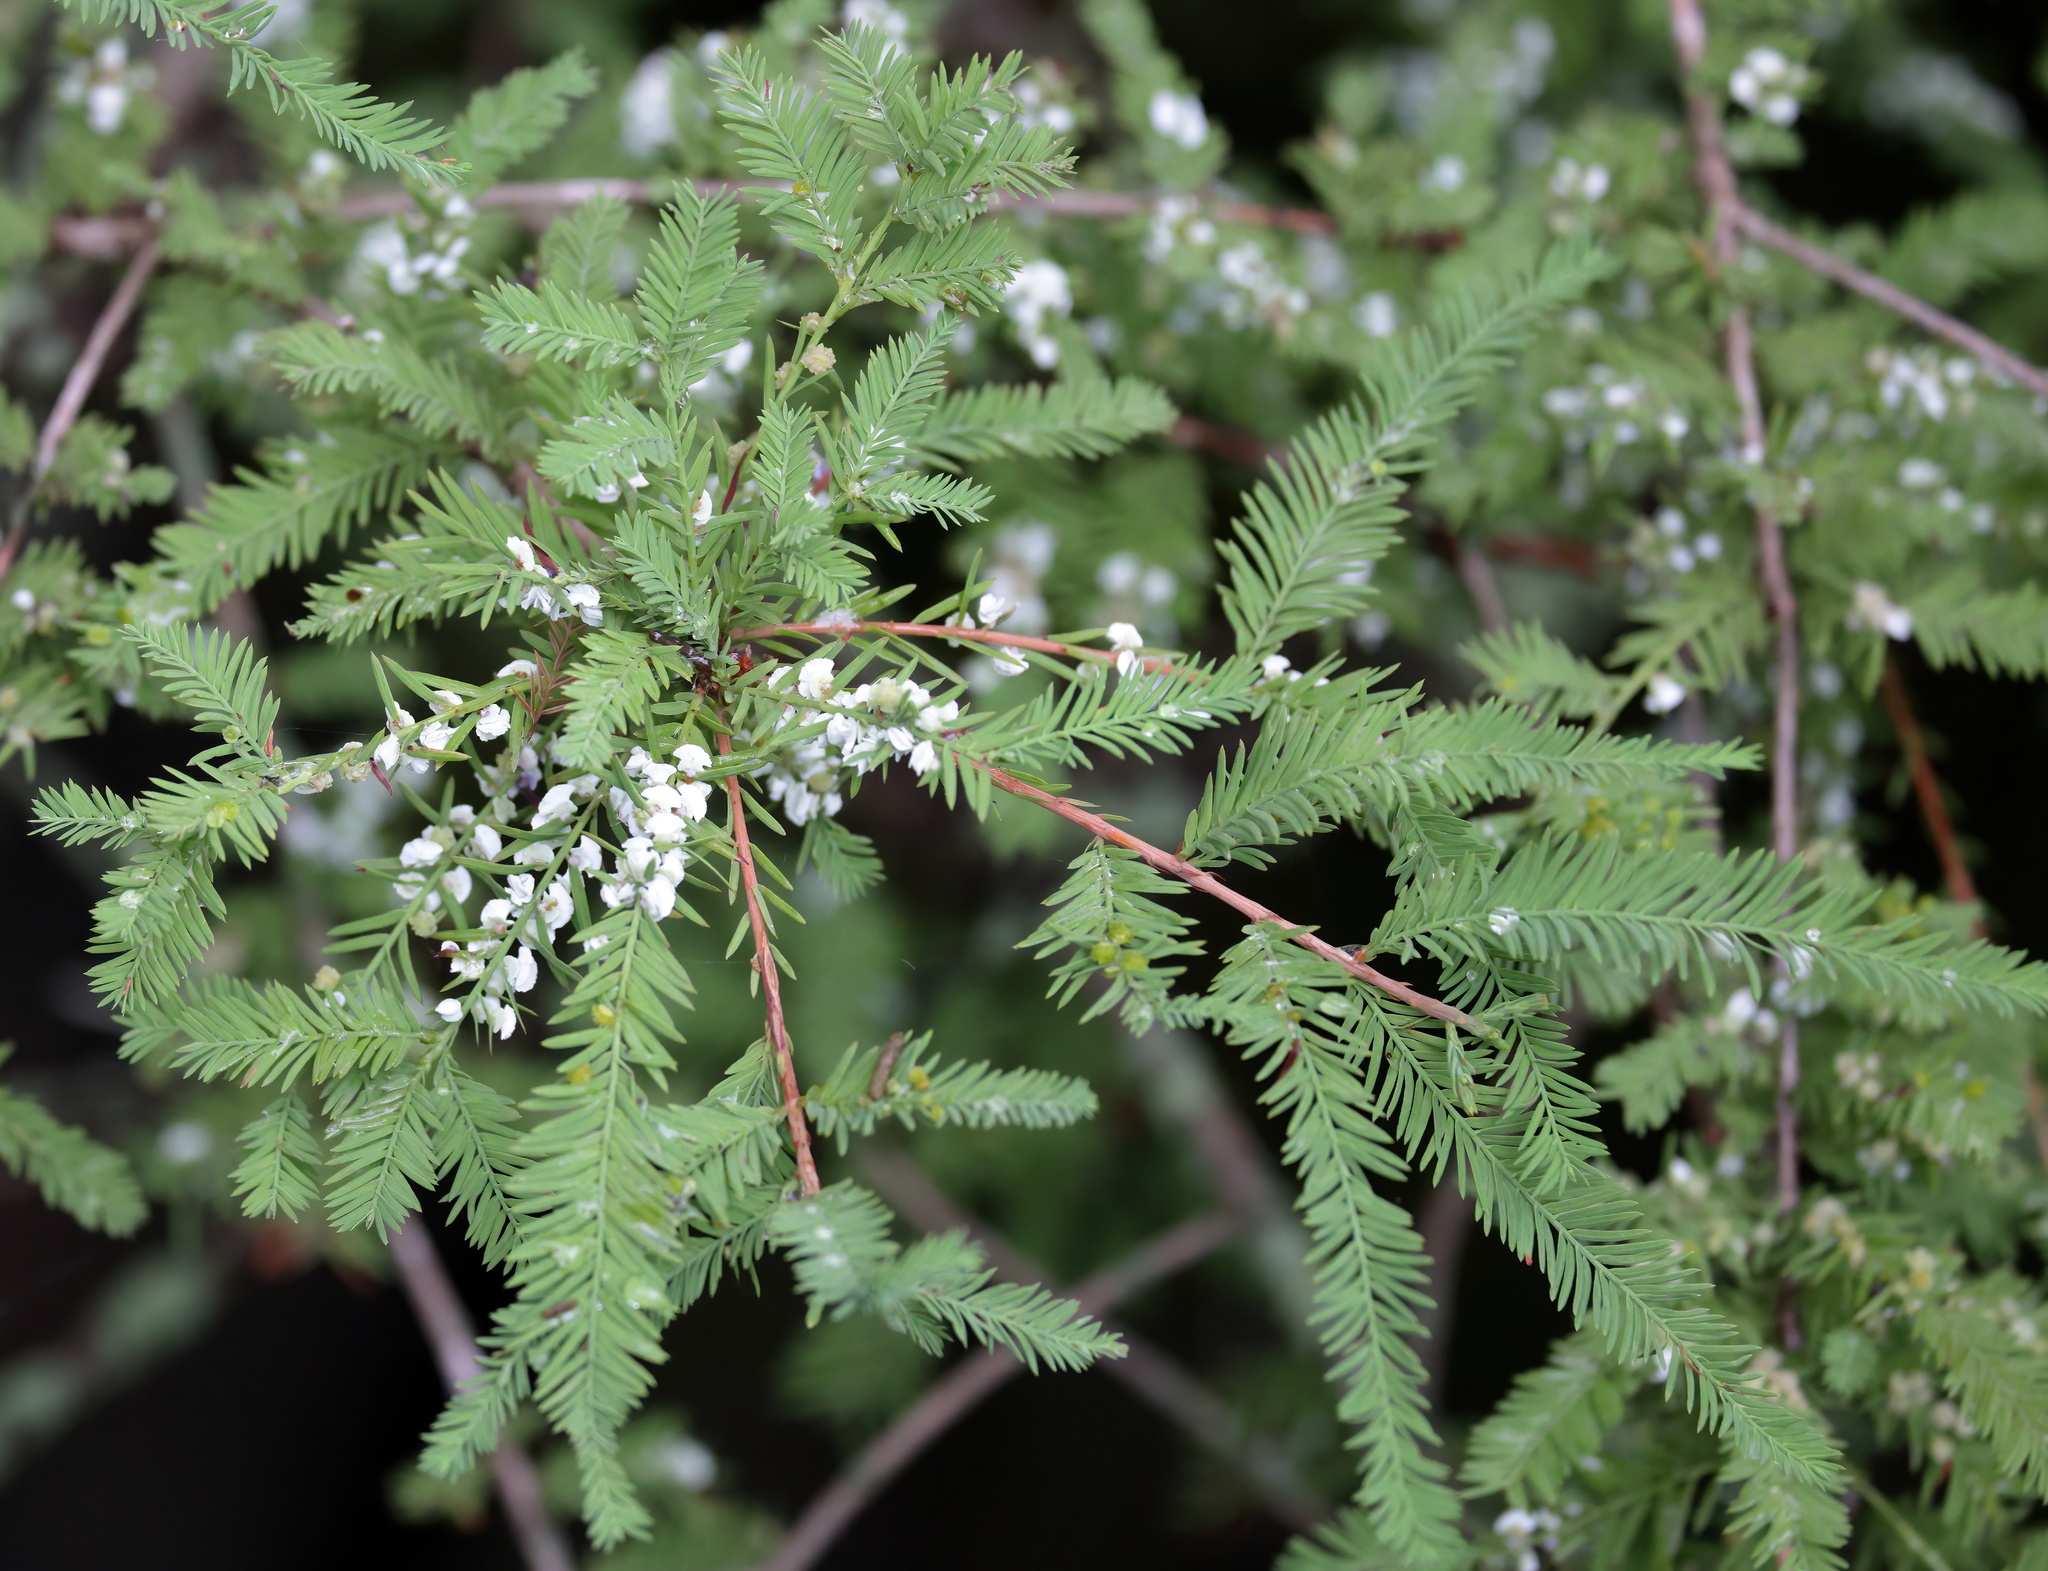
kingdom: Animalia
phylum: Arthropoda
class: Insecta
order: Diptera
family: Cecidomyiidae
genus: Taxodiomyia
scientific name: Taxodiomyia cupressi
